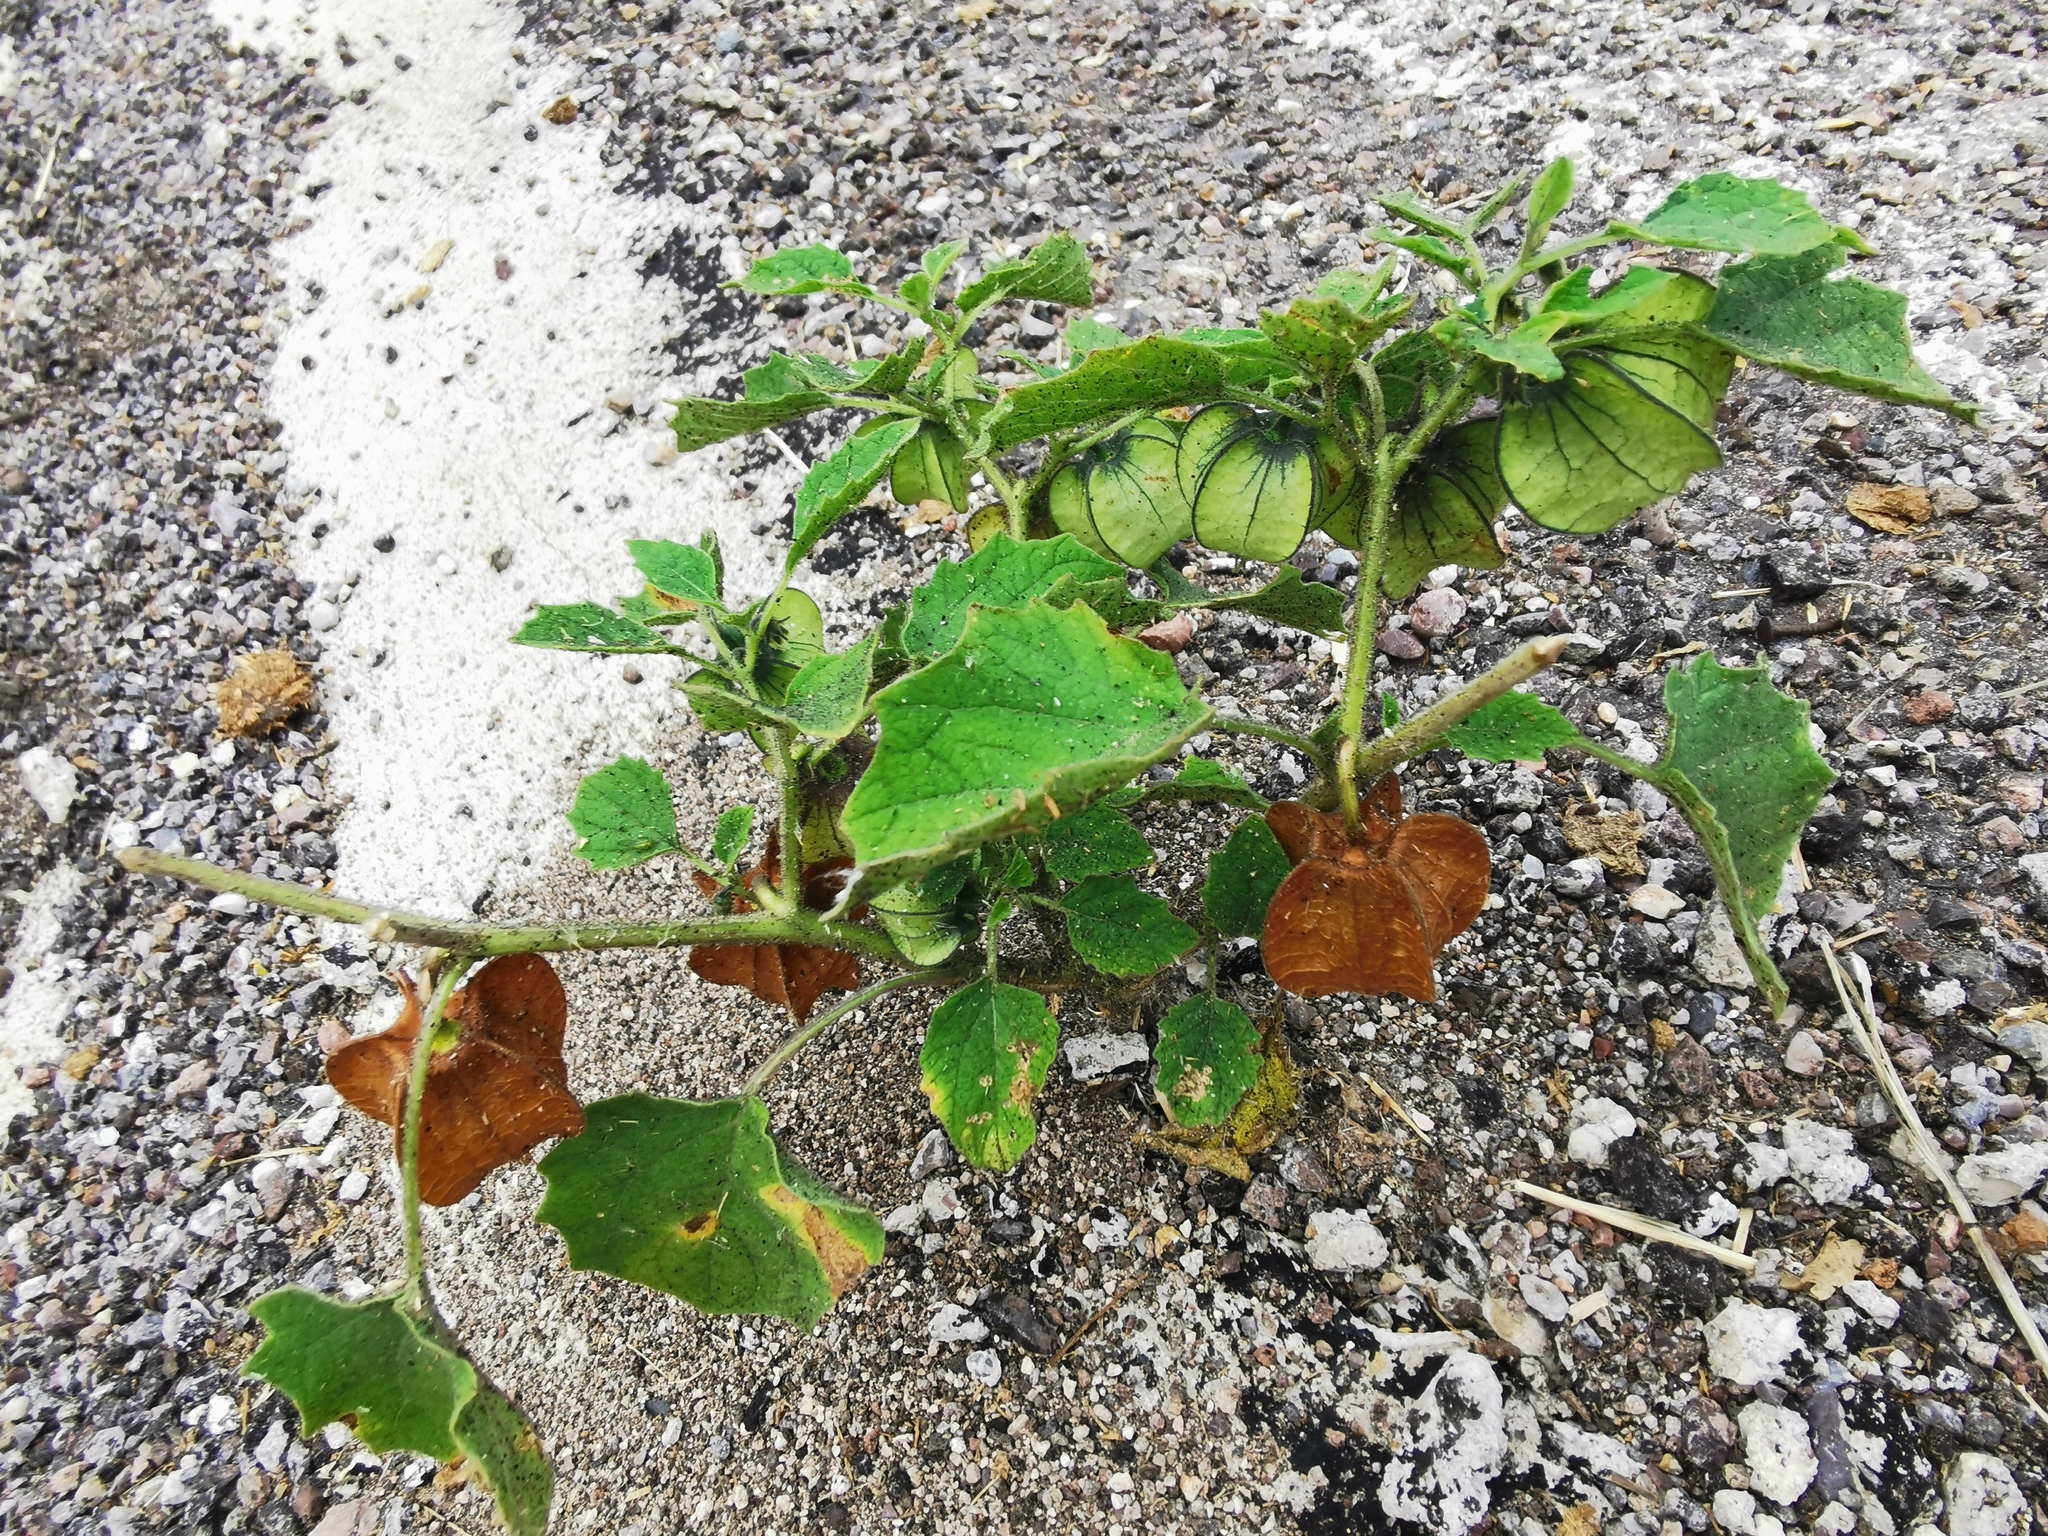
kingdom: Plantae
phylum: Tracheophyta
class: Magnoliopsida
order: Solanales
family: Solanaceae
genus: Physalis
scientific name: Physalis nicandroides
